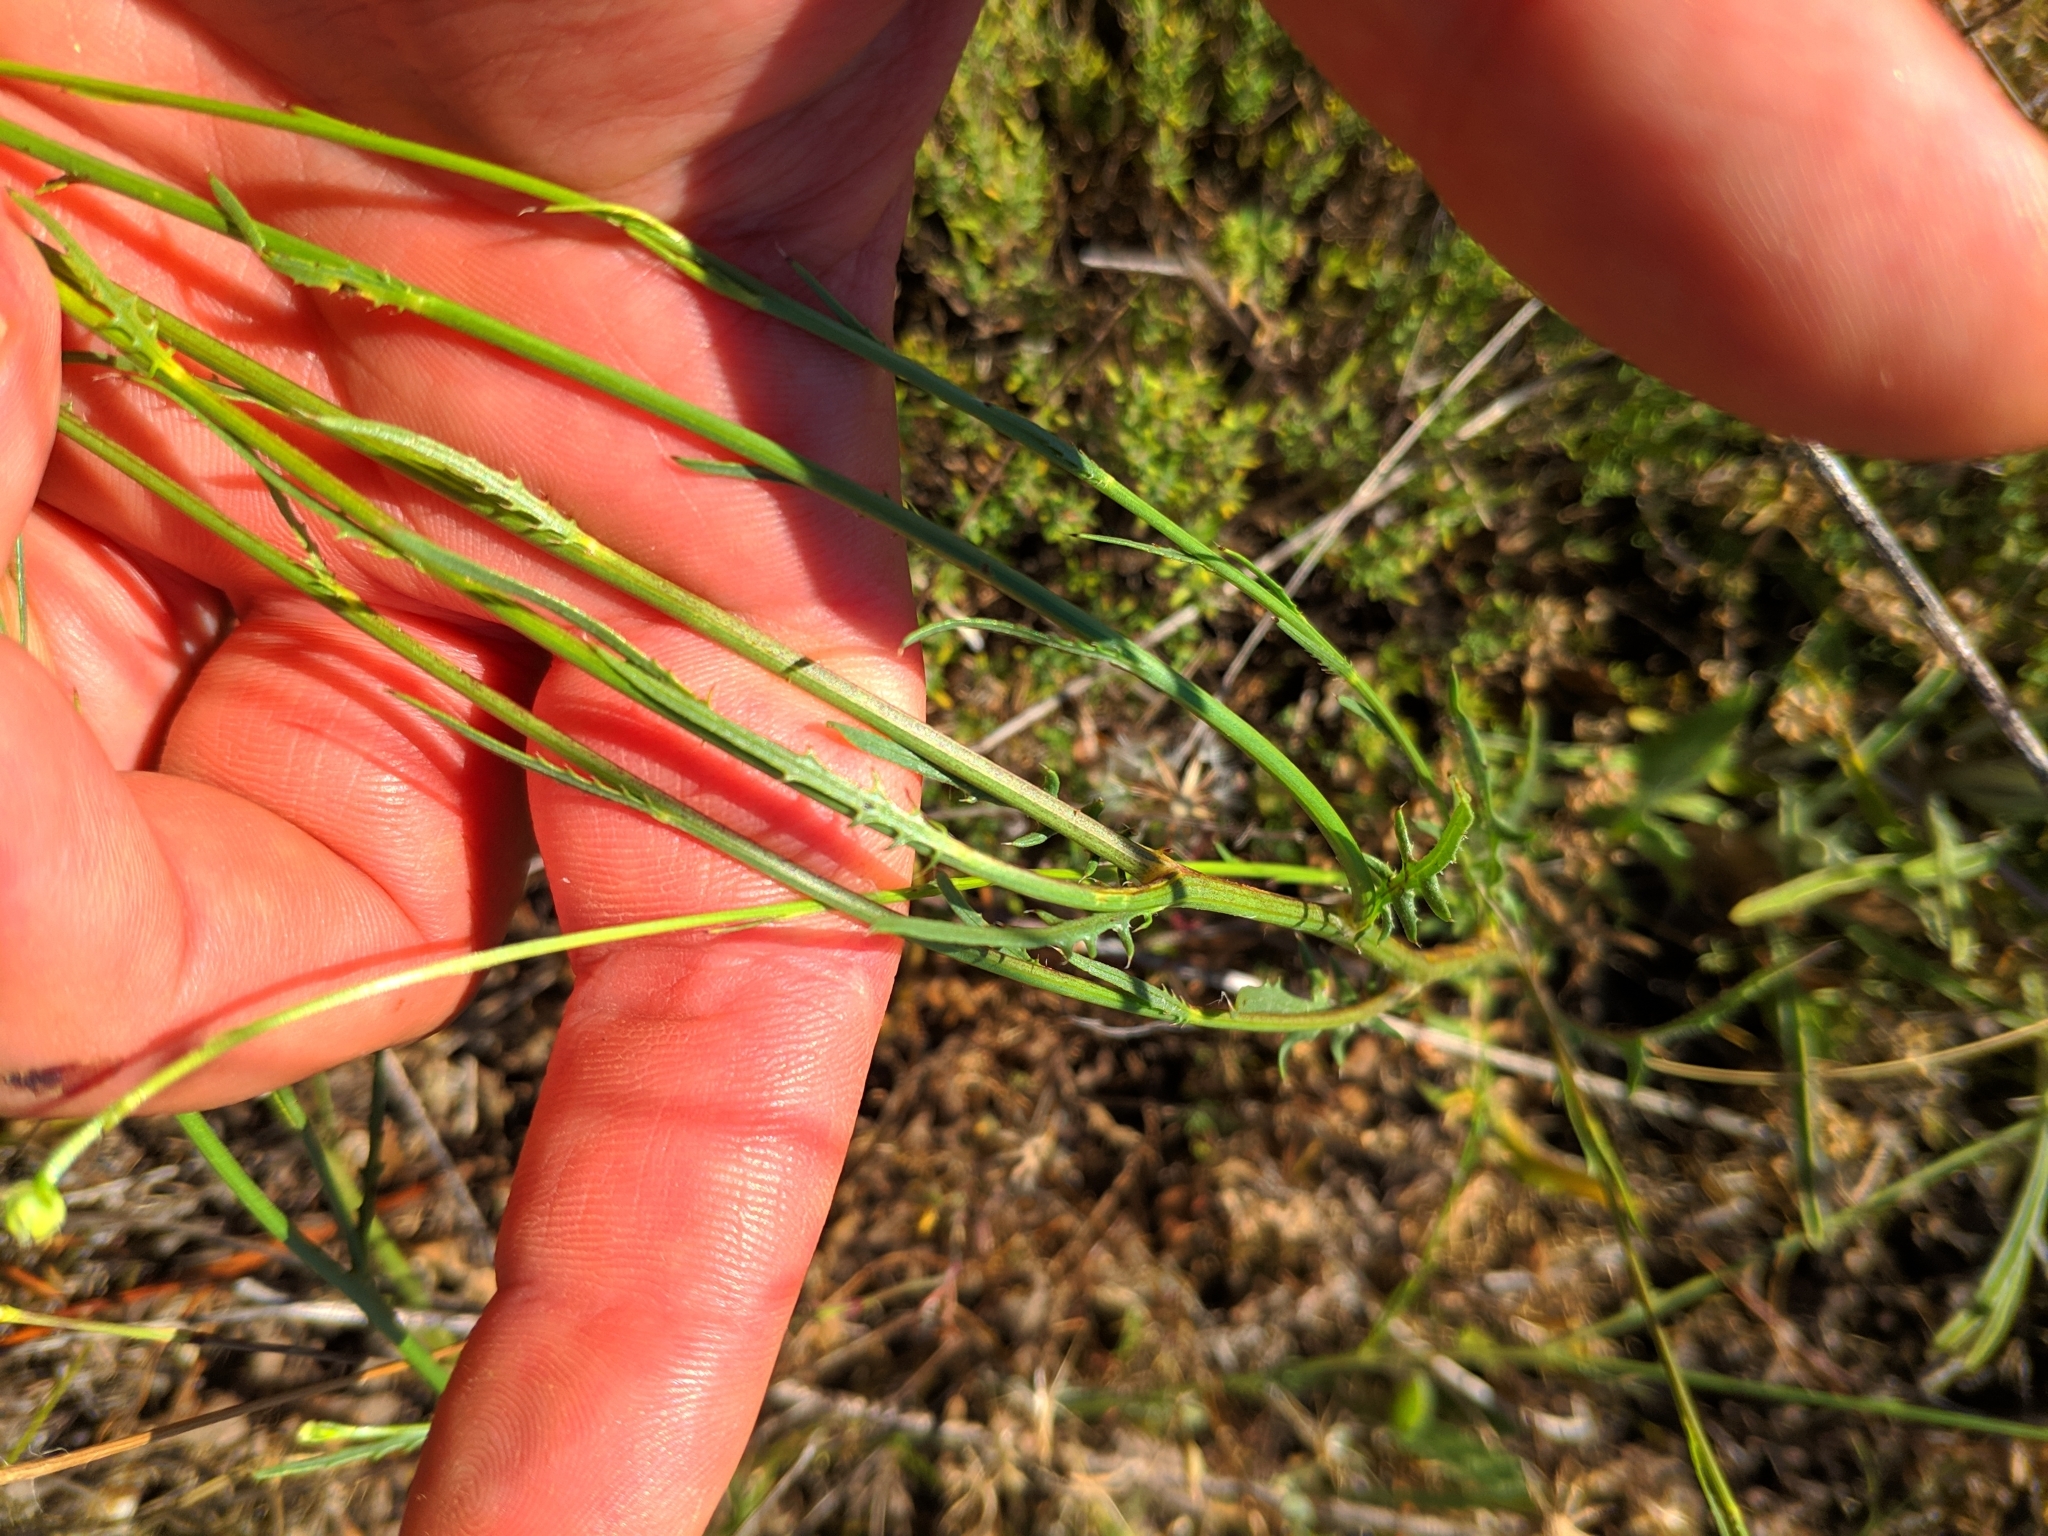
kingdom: Plantae
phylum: Tracheophyta
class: Magnoliopsida
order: Asterales
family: Asteraceae
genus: Mantisalca
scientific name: Mantisalca salmantica
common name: Dagger flower
